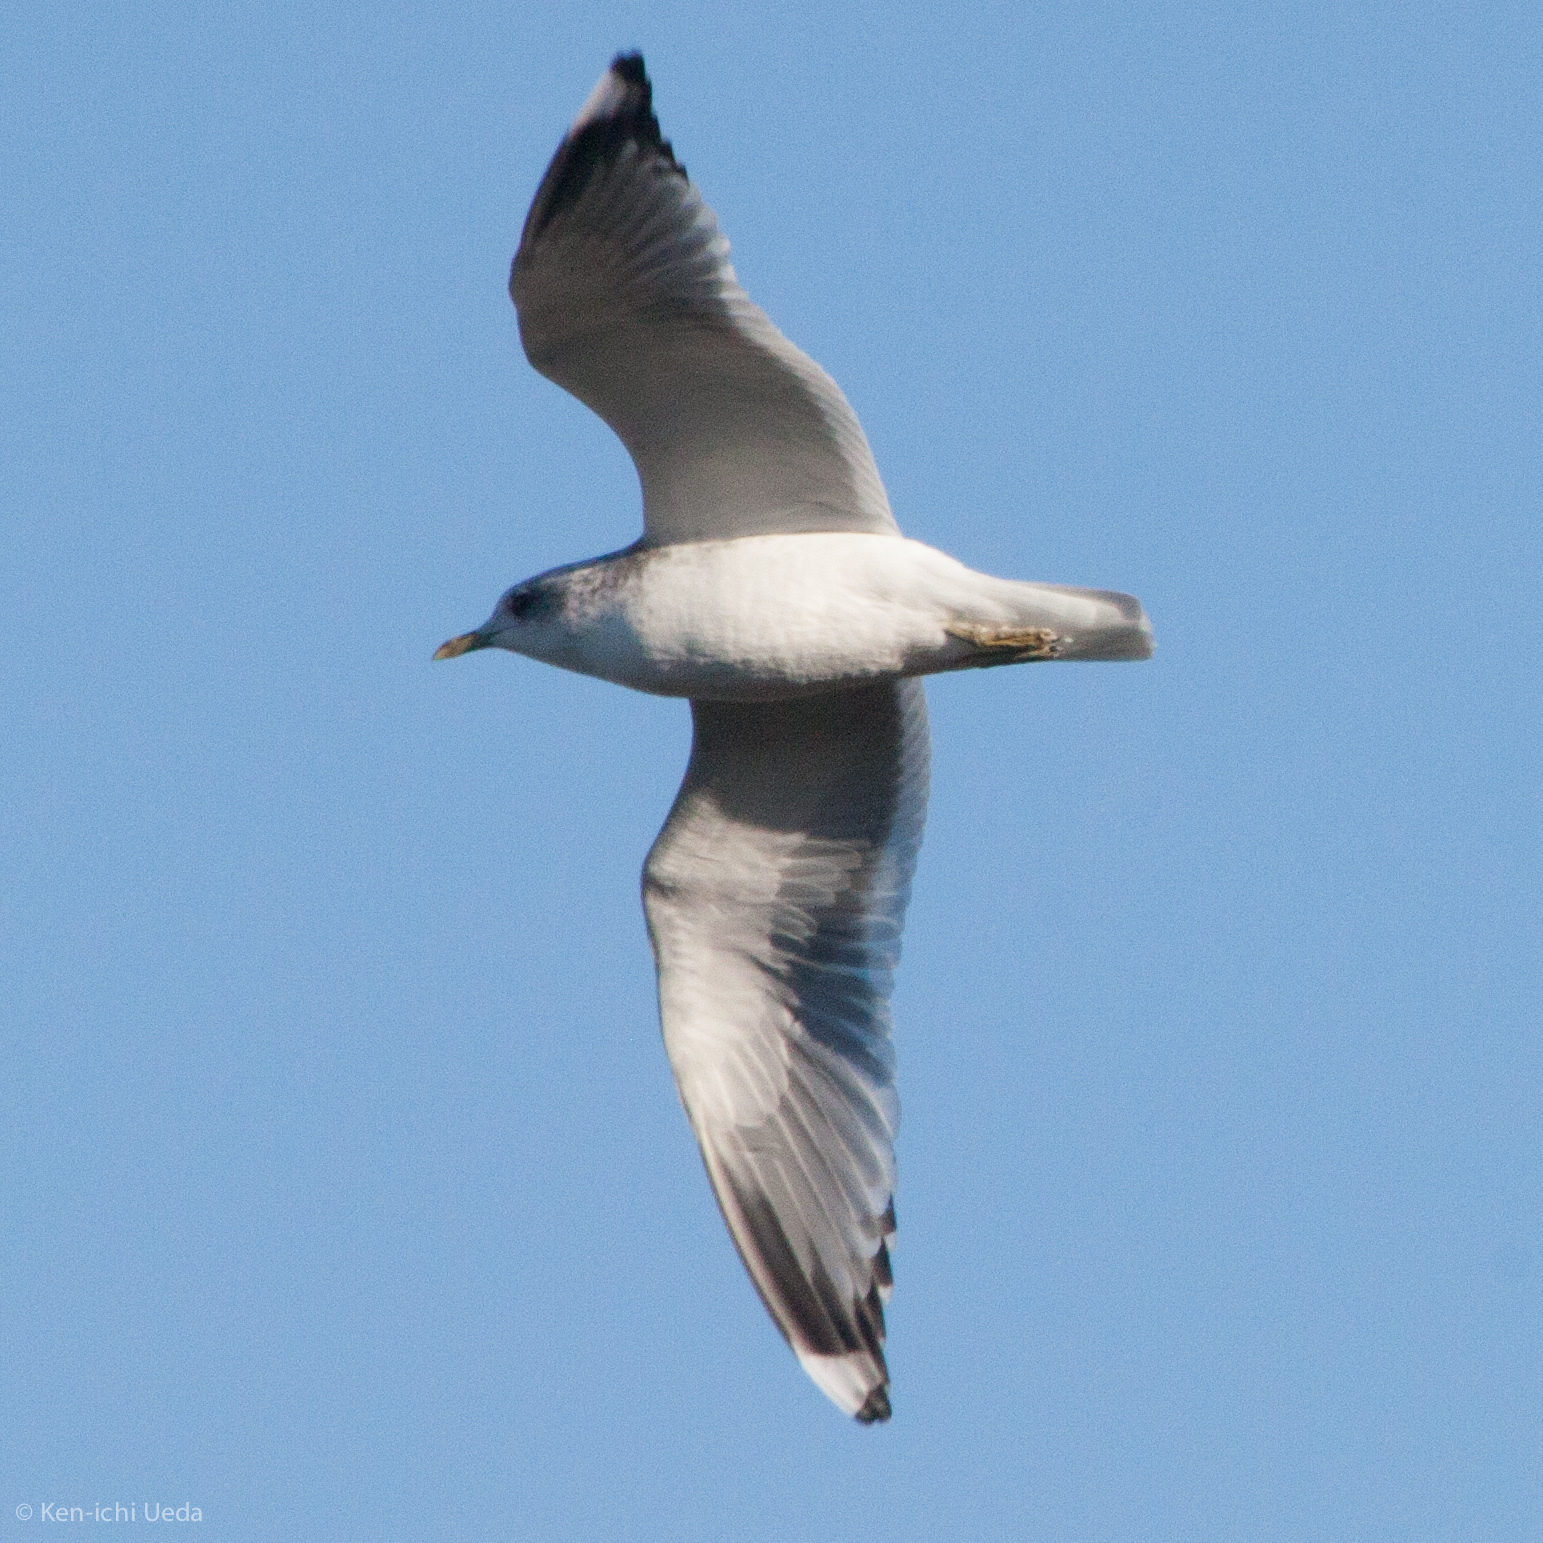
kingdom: Animalia
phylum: Chordata
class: Aves
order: Charadriiformes
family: Laridae
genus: Larus
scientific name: Larus brachyrhynchus
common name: Short-billed gull
